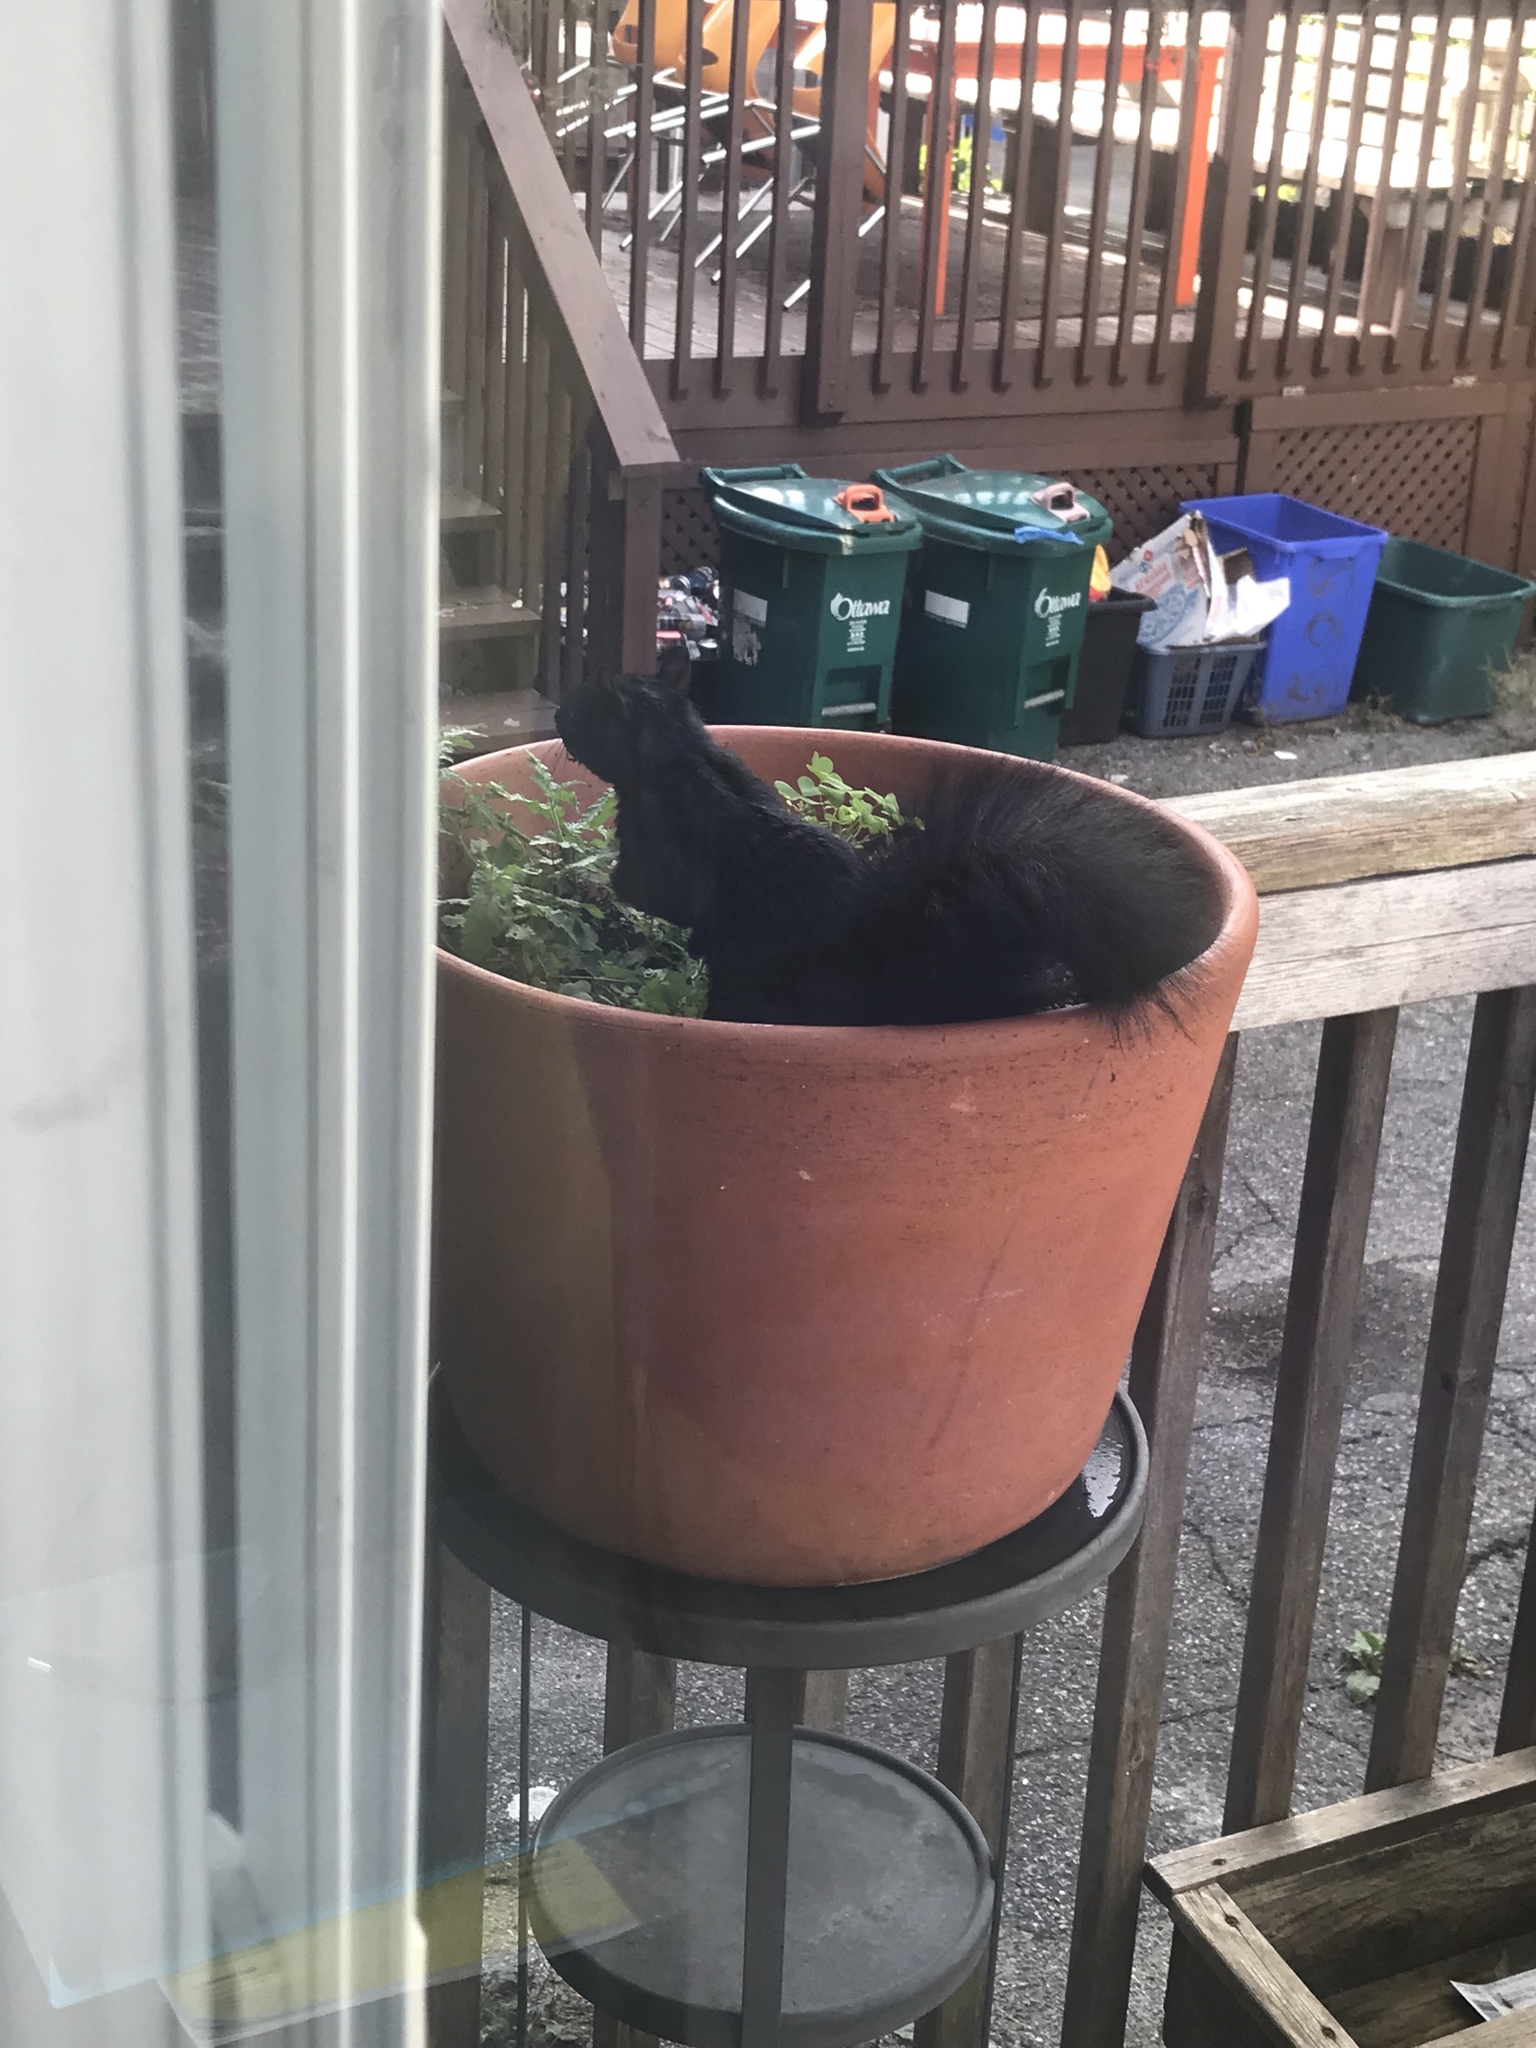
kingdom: Animalia
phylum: Chordata
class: Mammalia
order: Rodentia
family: Sciuridae
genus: Sciurus
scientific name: Sciurus carolinensis
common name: Eastern gray squirrel
